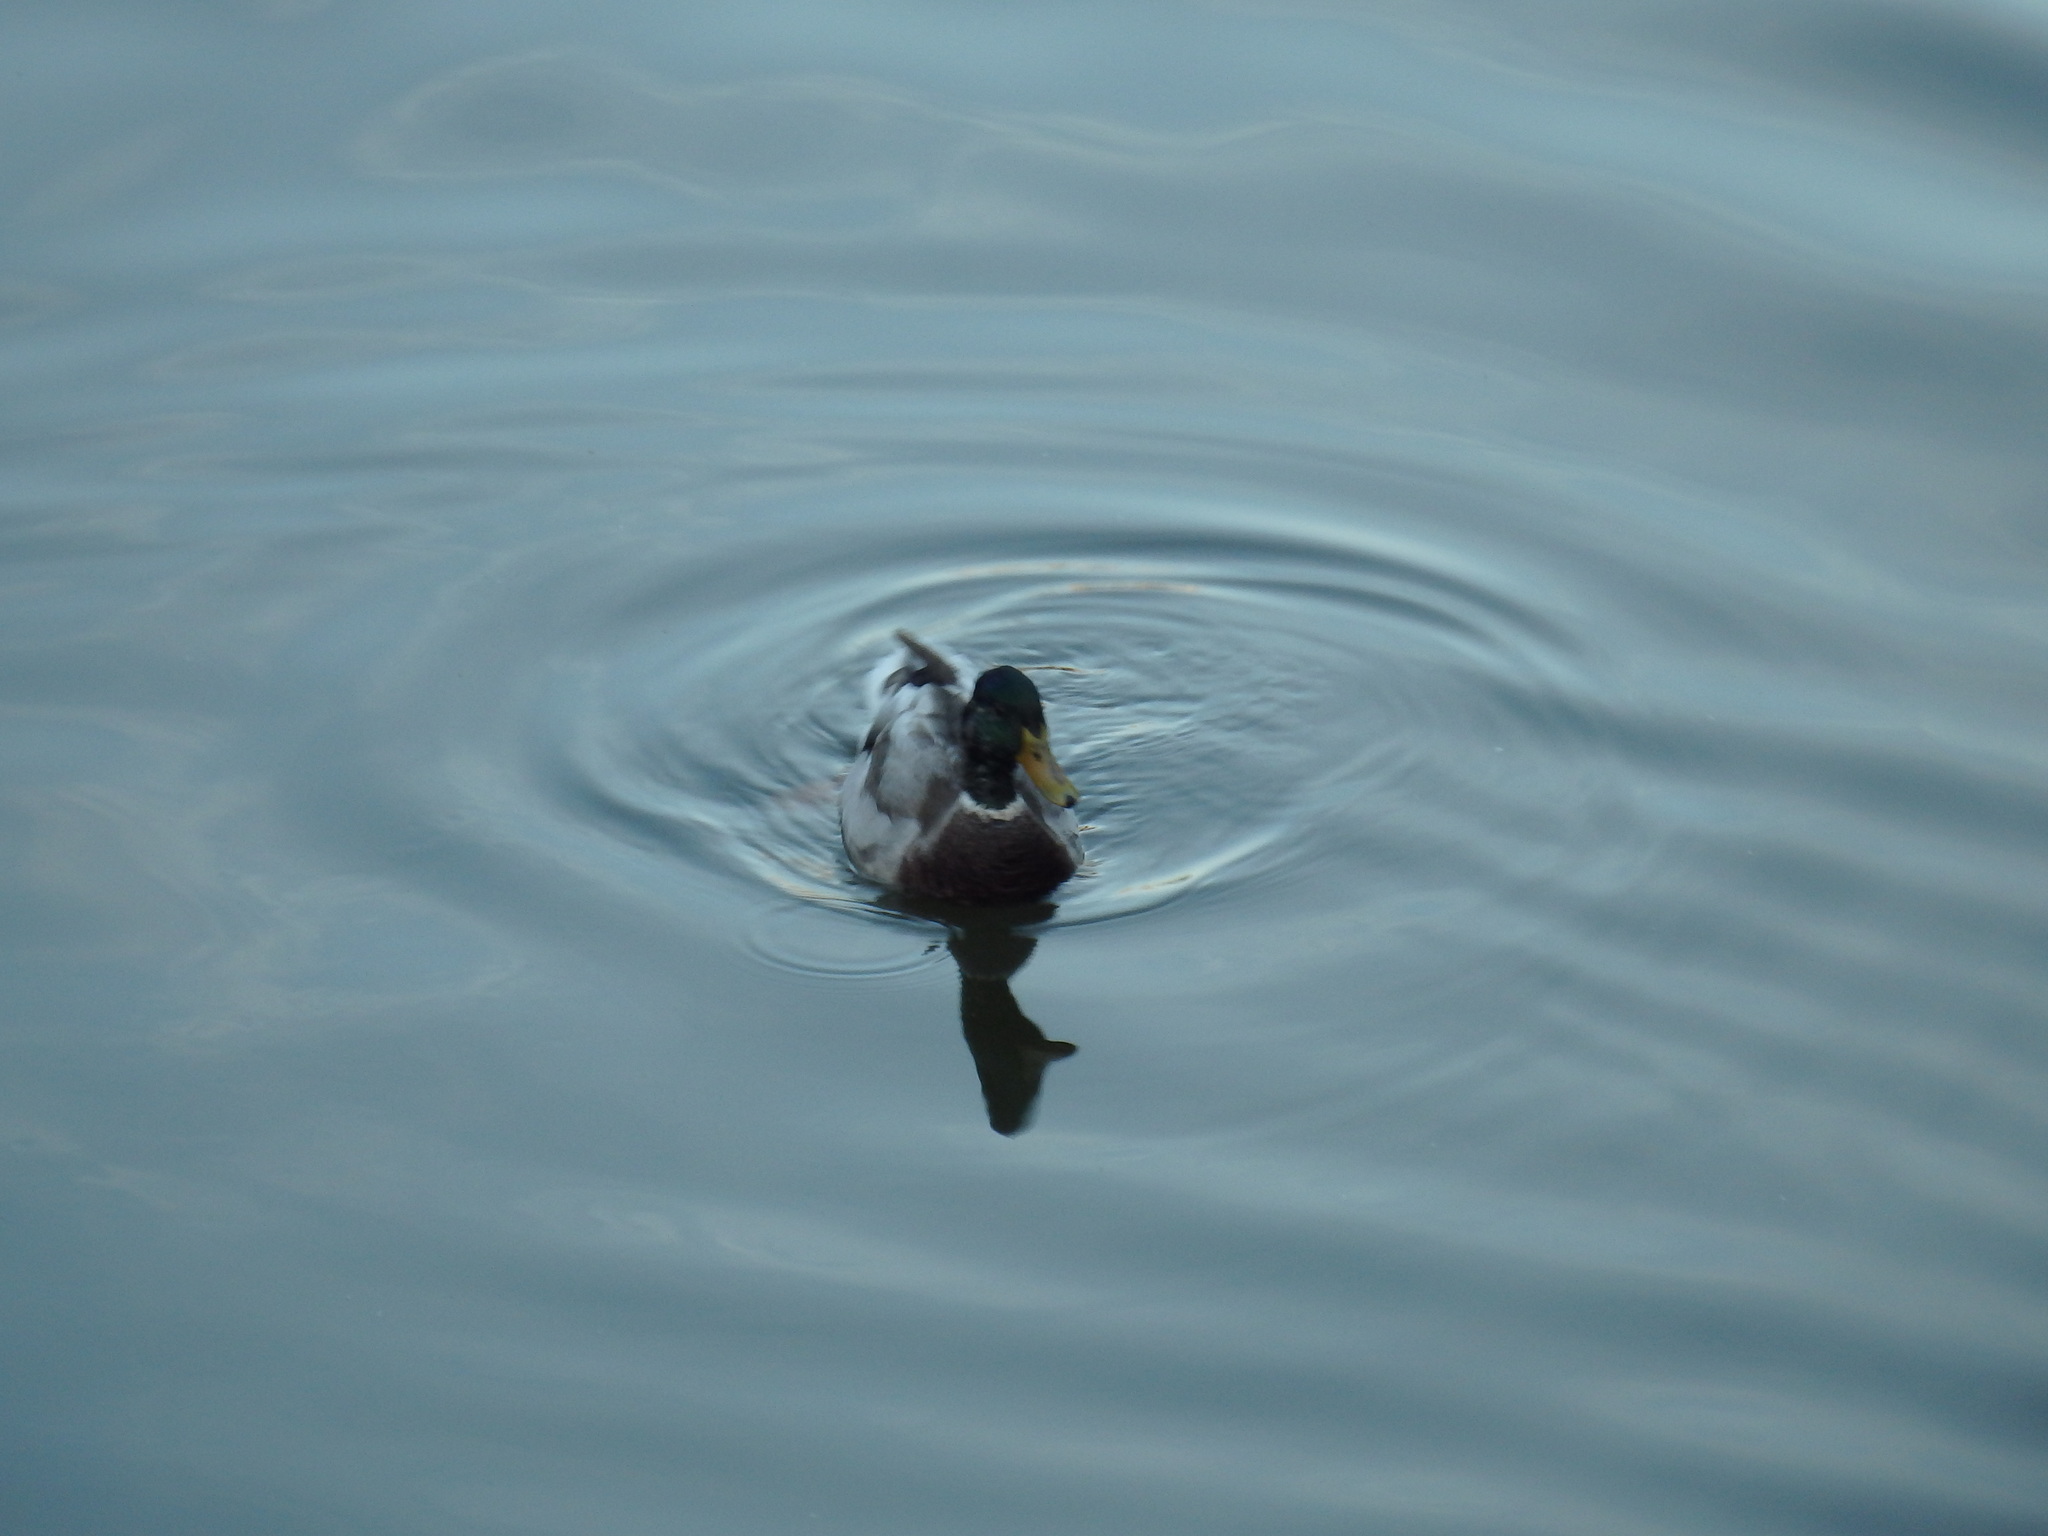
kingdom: Animalia
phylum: Chordata
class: Aves
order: Anseriformes
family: Anatidae
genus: Anas
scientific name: Anas platyrhynchos
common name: Mallard
